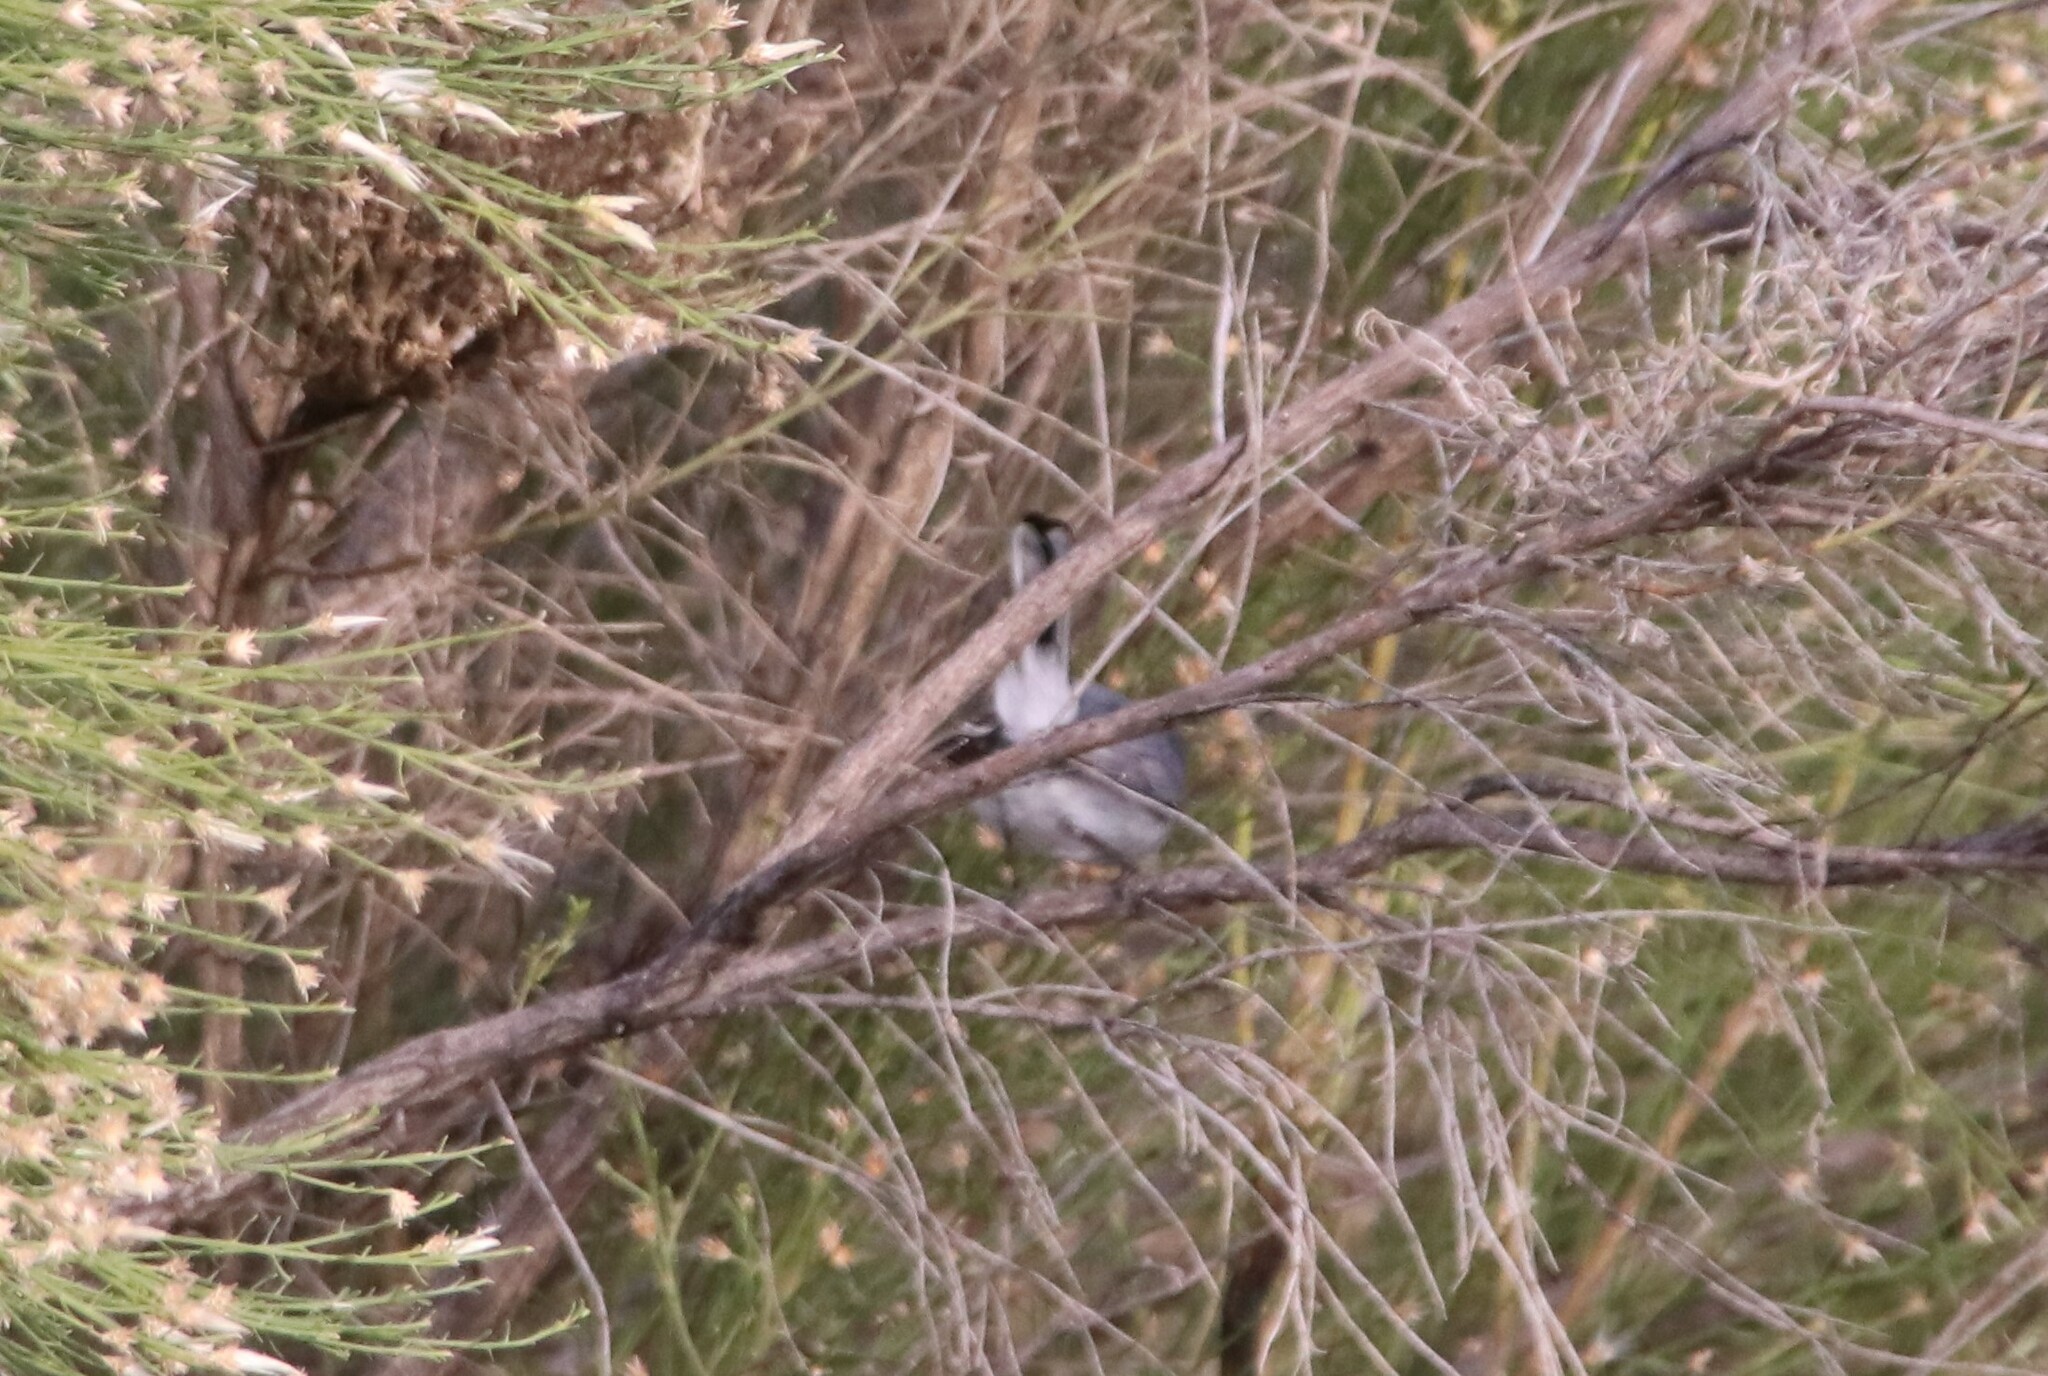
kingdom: Animalia
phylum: Chordata
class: Aves
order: Passeriformes
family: Polioptilidae
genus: Polioptila
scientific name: Polioptila caerulea
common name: Blue-gray gnatcatcher
